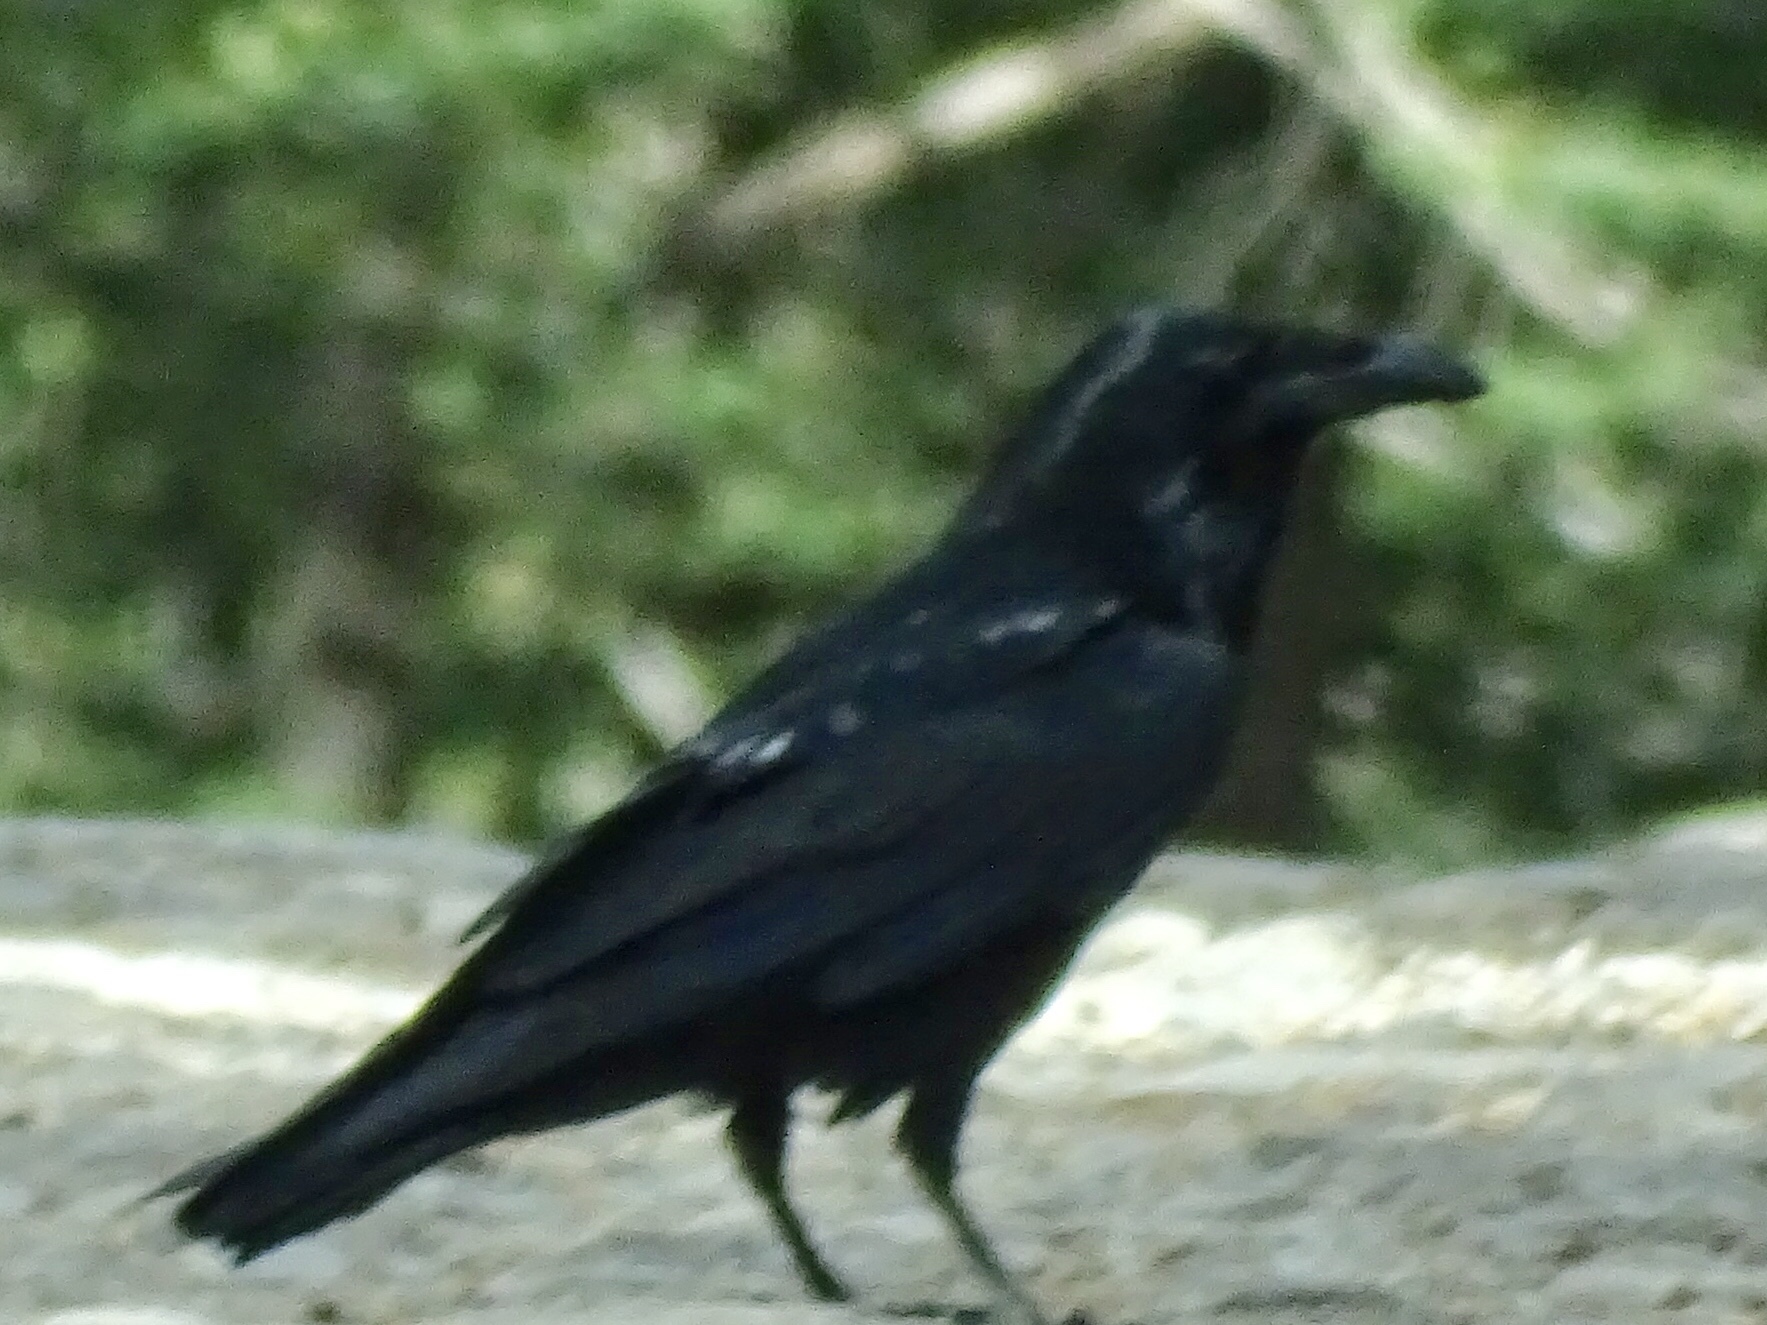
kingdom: Animalia
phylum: Chordata
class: Aves
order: Passeriformes
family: Corvidae
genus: Corvus
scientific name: Corvus corax
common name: Common raven
